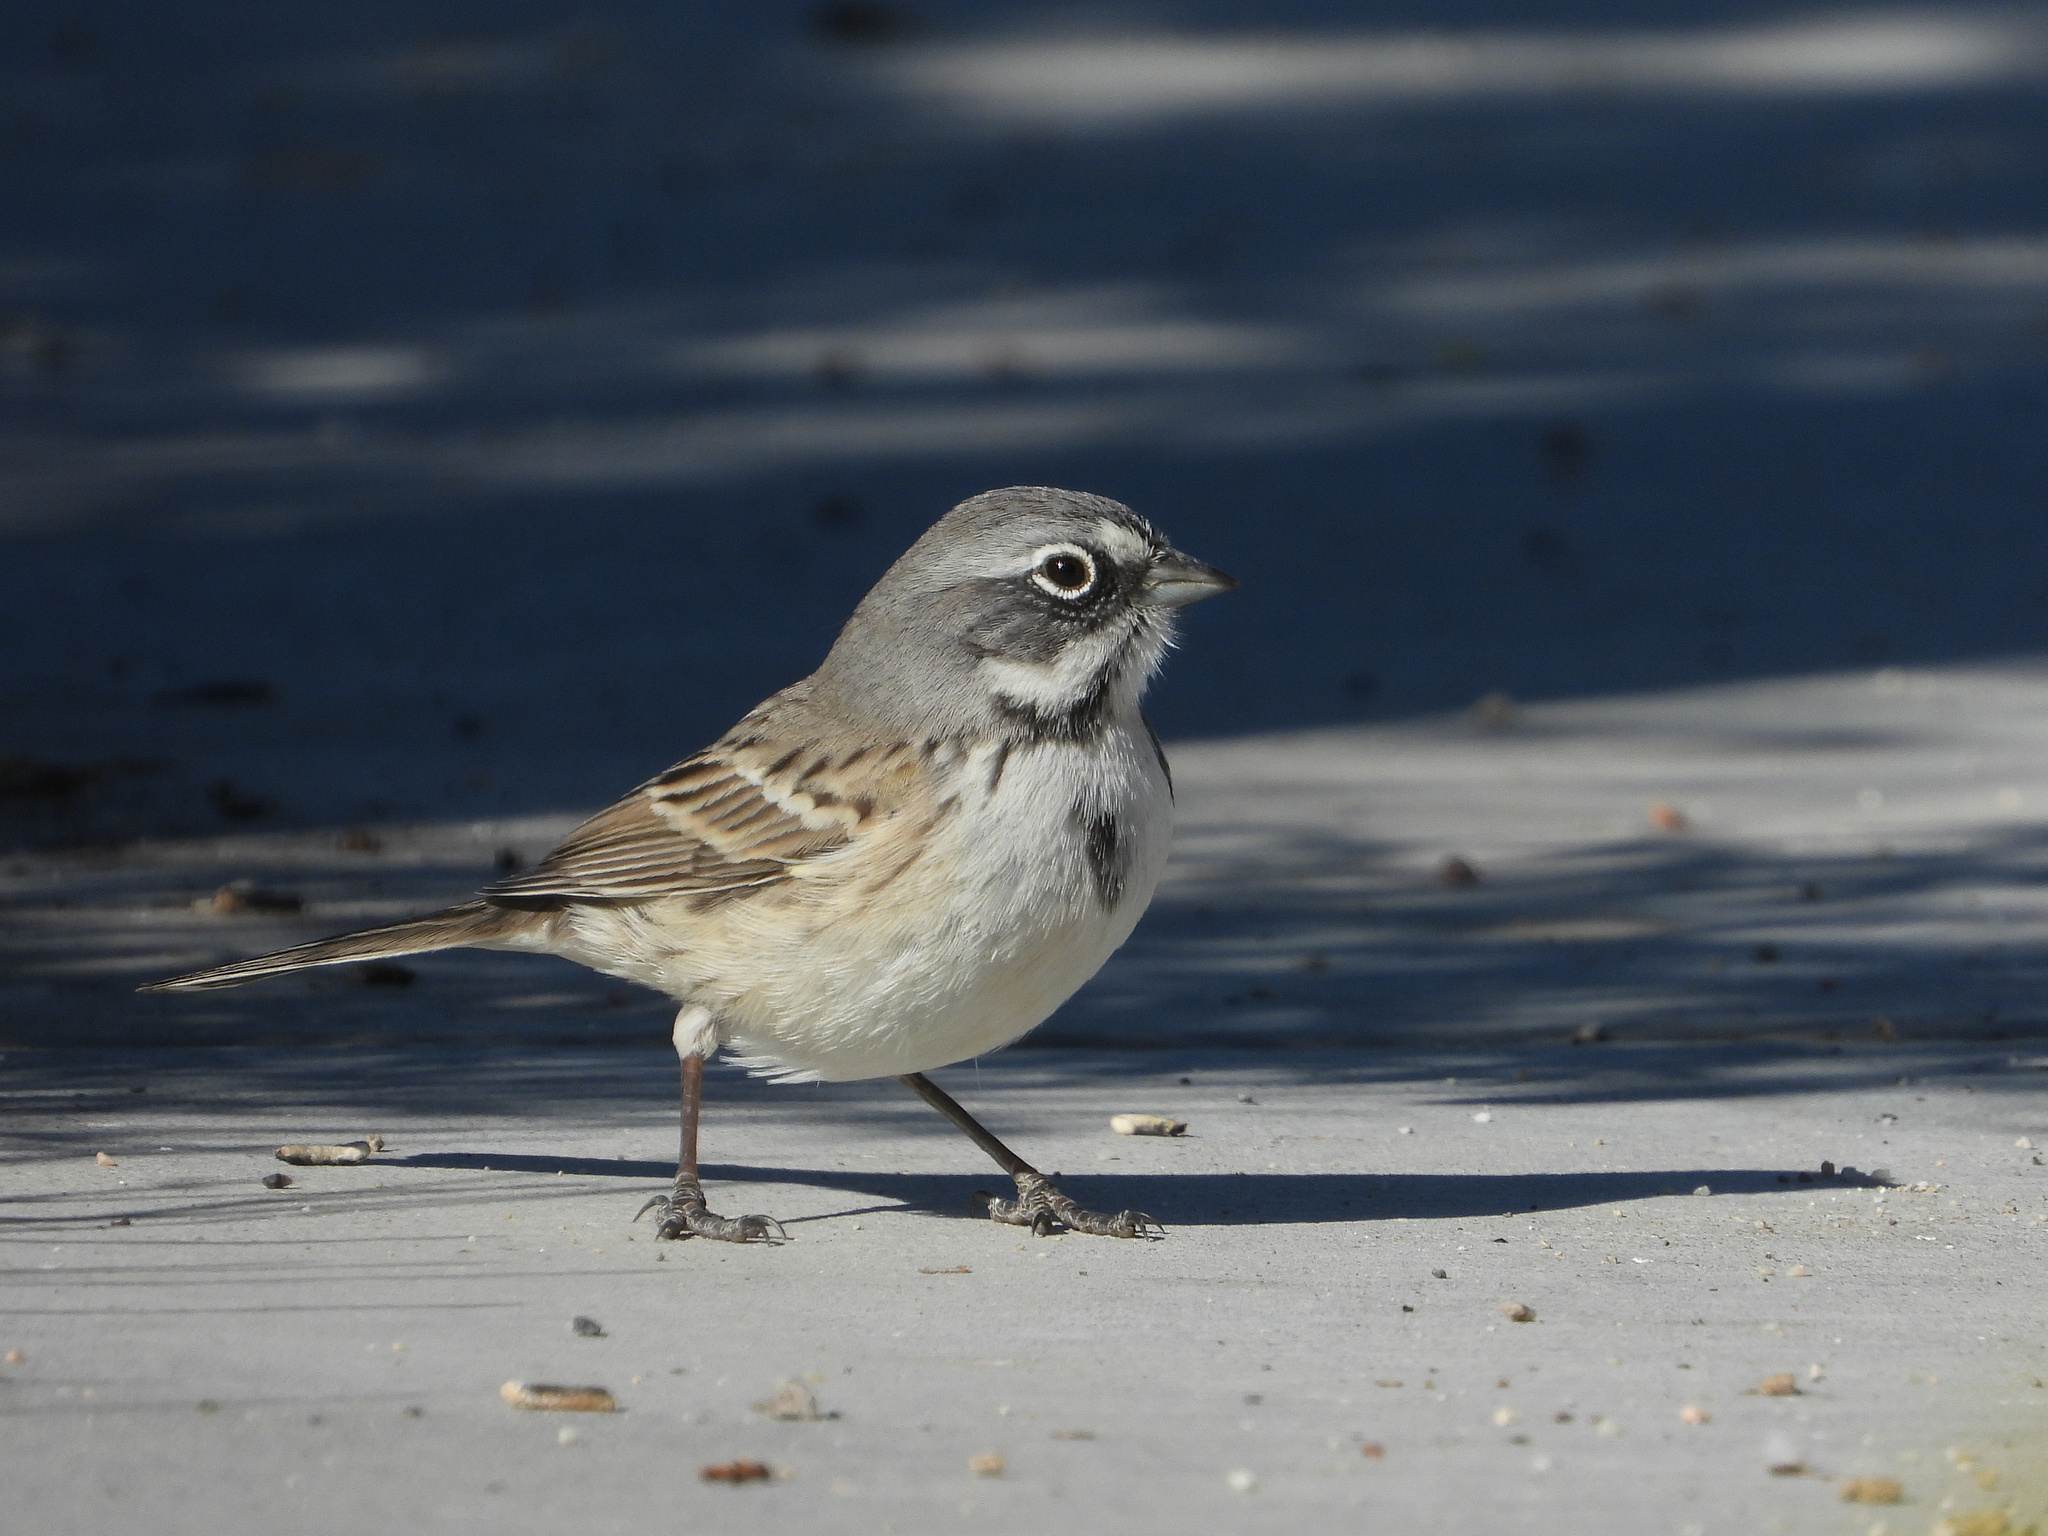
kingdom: Animalia
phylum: Chordata
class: Aves
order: Passeriformes
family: Passerellidae
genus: Artemisiospiza
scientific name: Artemisiospiza belli
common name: Bell's sparrow
